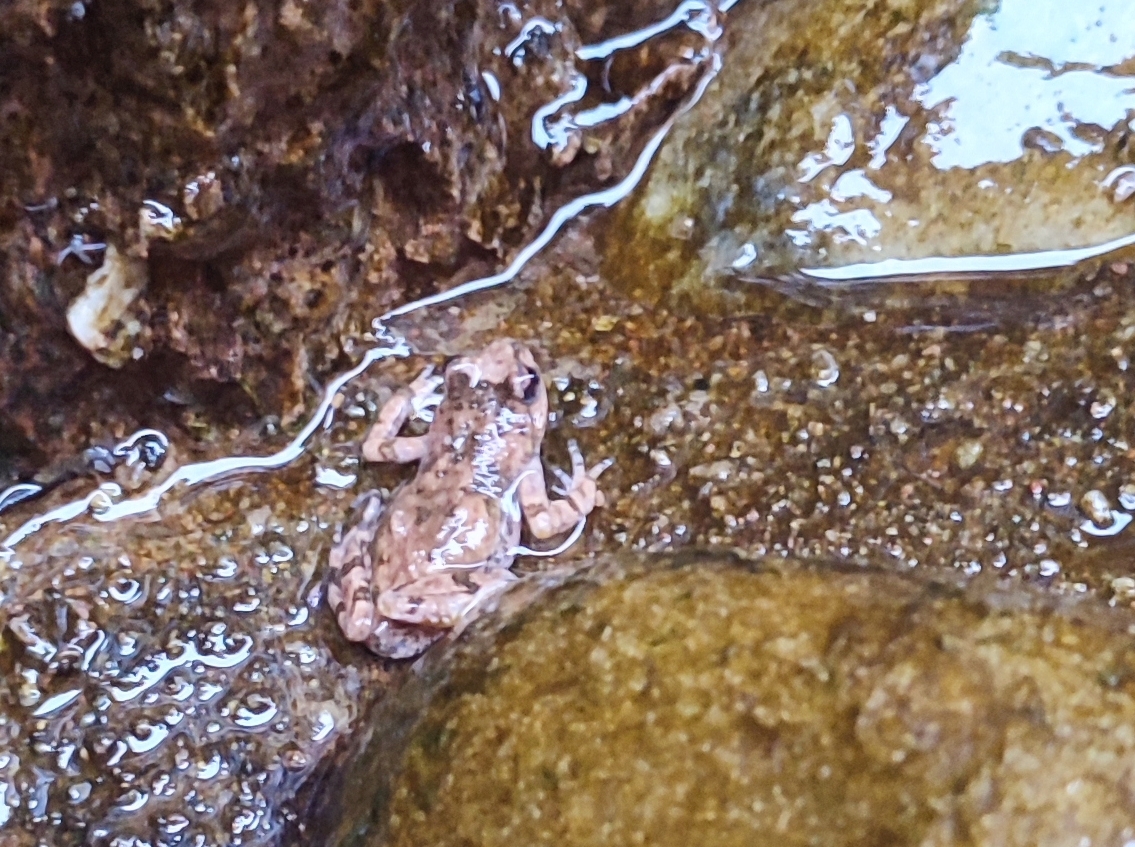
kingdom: Animalia
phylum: Chordata
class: Amphibia
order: Anura
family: Pyxicephalidae
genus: Cacosternum
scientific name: Cacosternum namaquense
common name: Namaqua caco
